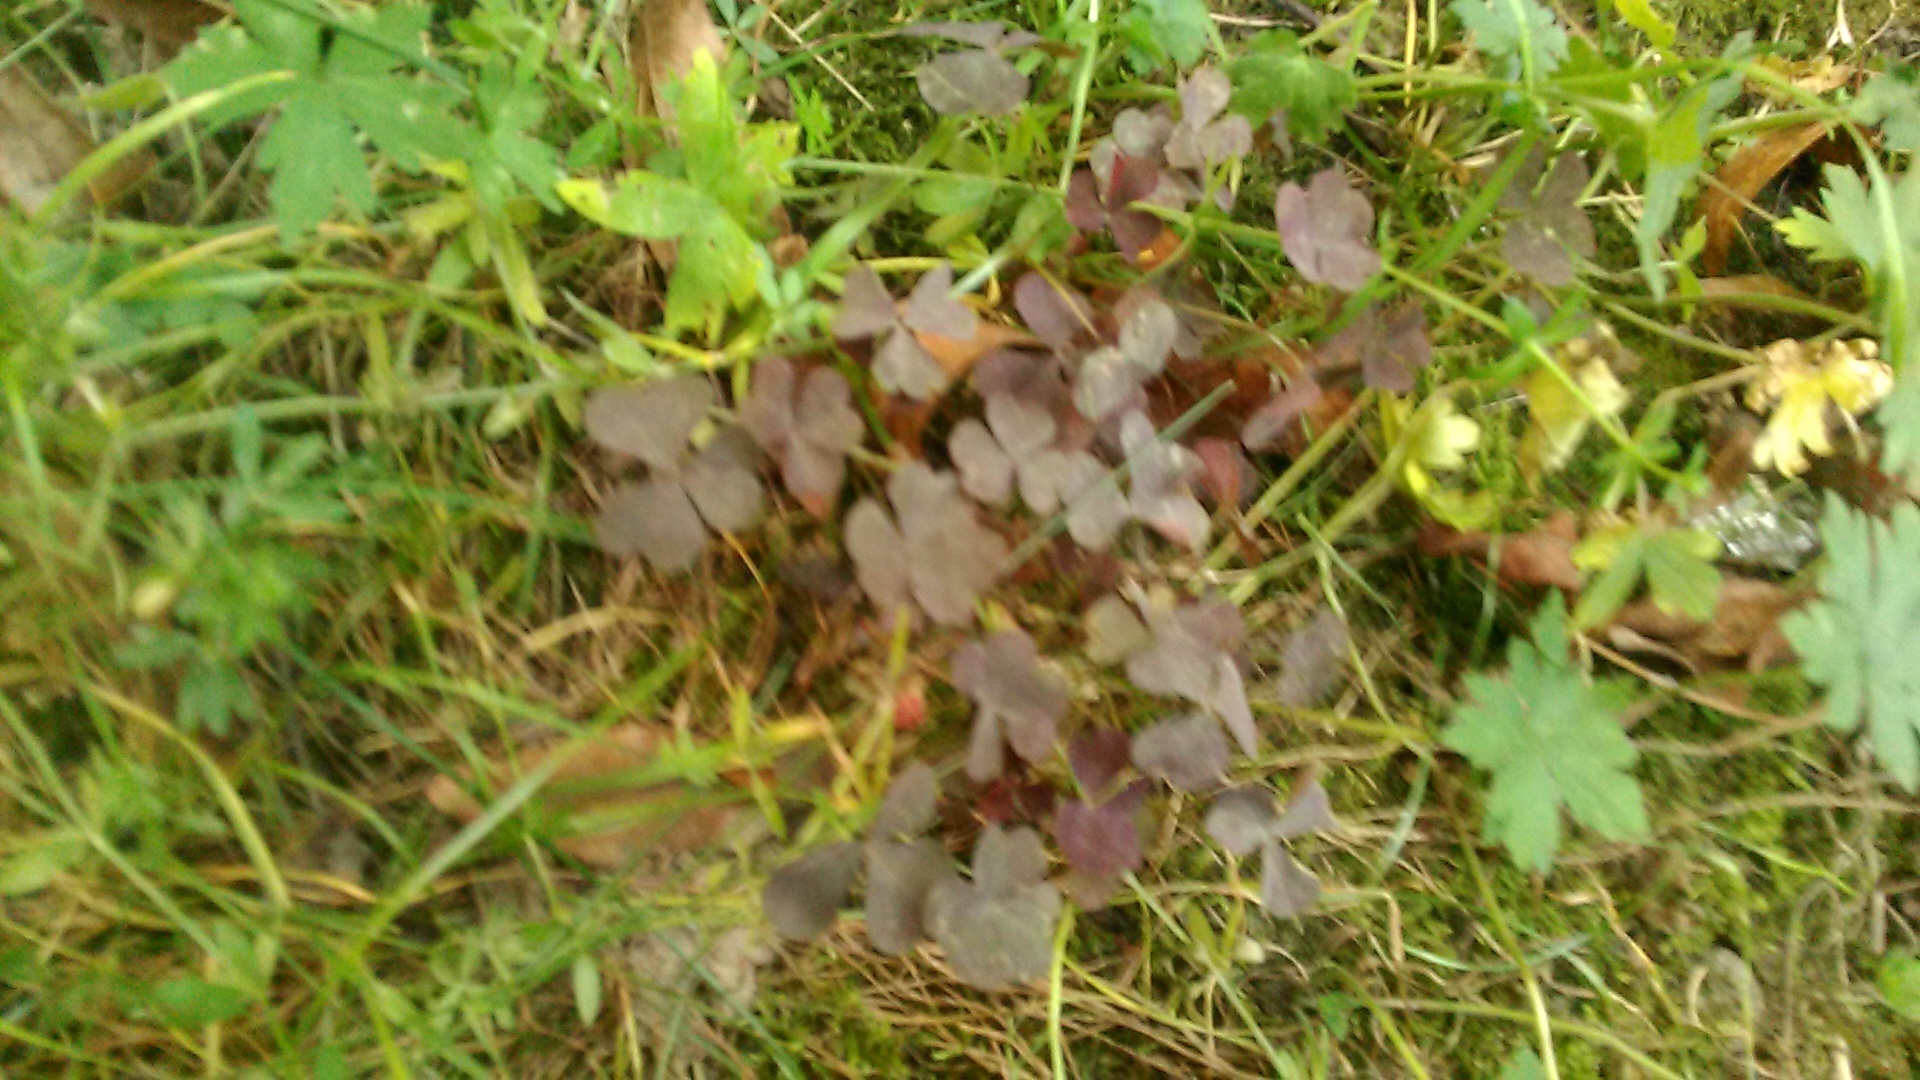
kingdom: Plantae
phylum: Tracheophyta
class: Magnoliopsida
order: Oxalidales
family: Oxalidaceae
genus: Oxalis
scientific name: Oxalis stricta
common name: Upright yellow-sorrel
